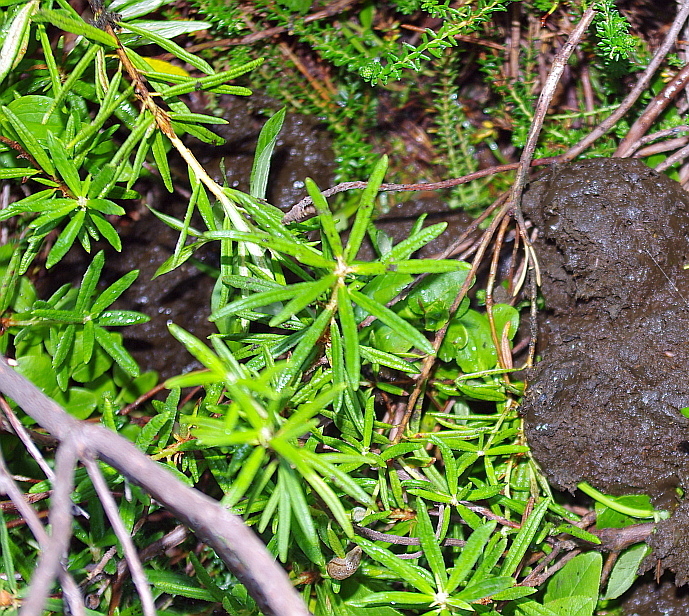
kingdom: Plantae
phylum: Tracheophyta
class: Magnoliopsida
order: Ericales
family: Ericaceae
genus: Rhododendron
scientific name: Rhododendron tomentosum
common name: Marsh labrador tea
